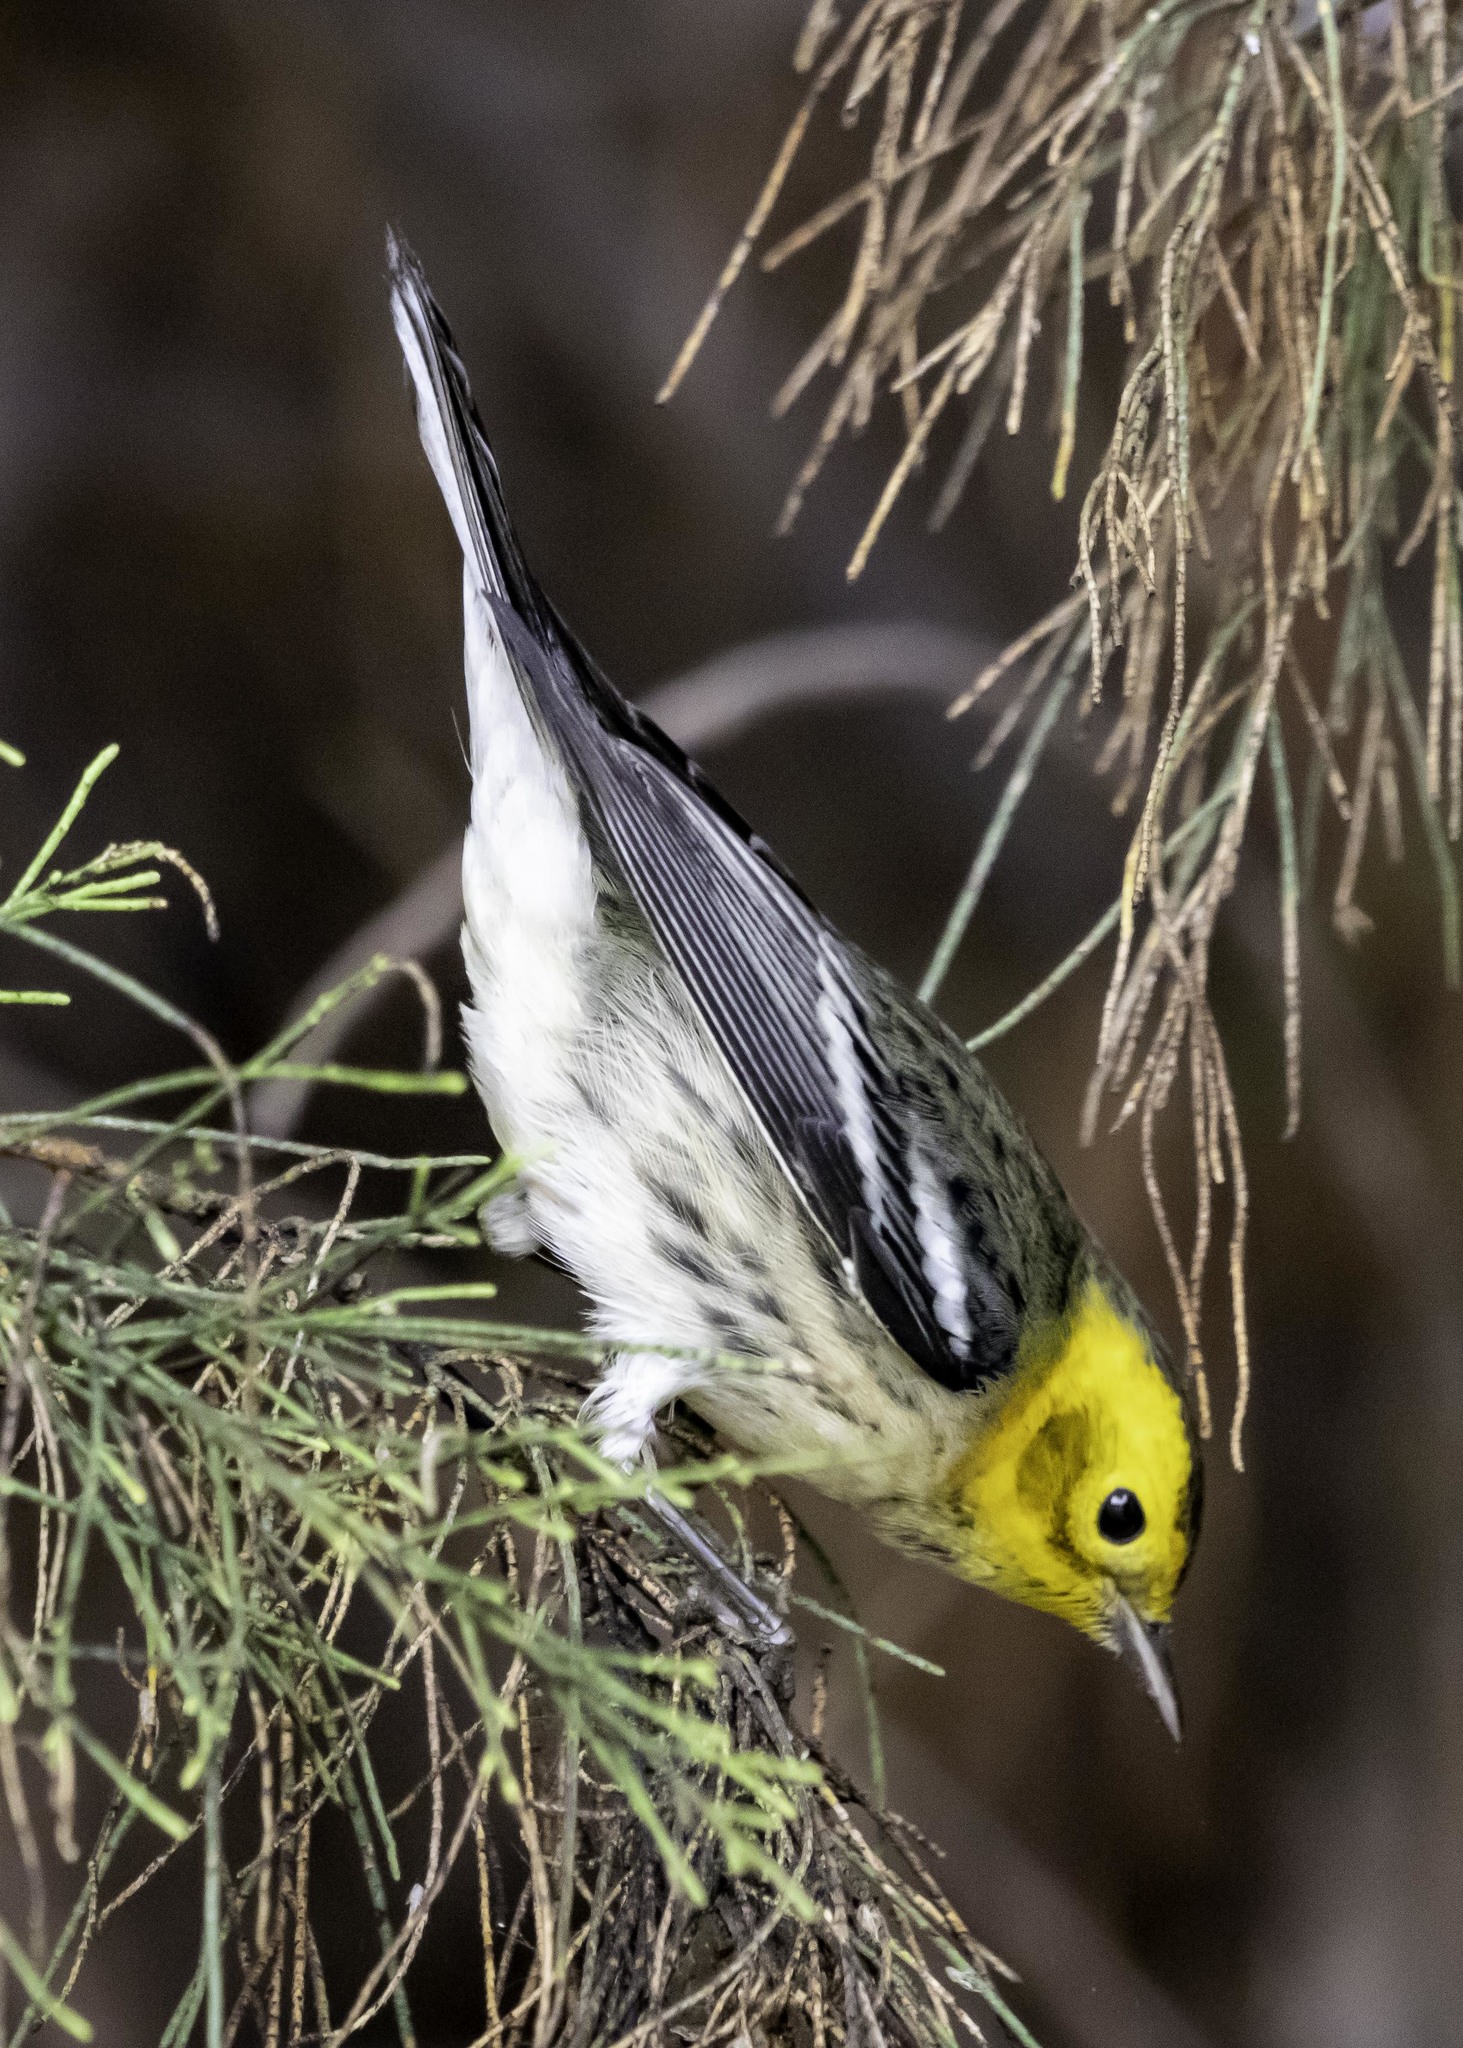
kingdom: Animalia
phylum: Chordata
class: Aves
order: Passeriformes
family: Parulidae
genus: Setophaga
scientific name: Setophaga occidentalis
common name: Hermit warbler
